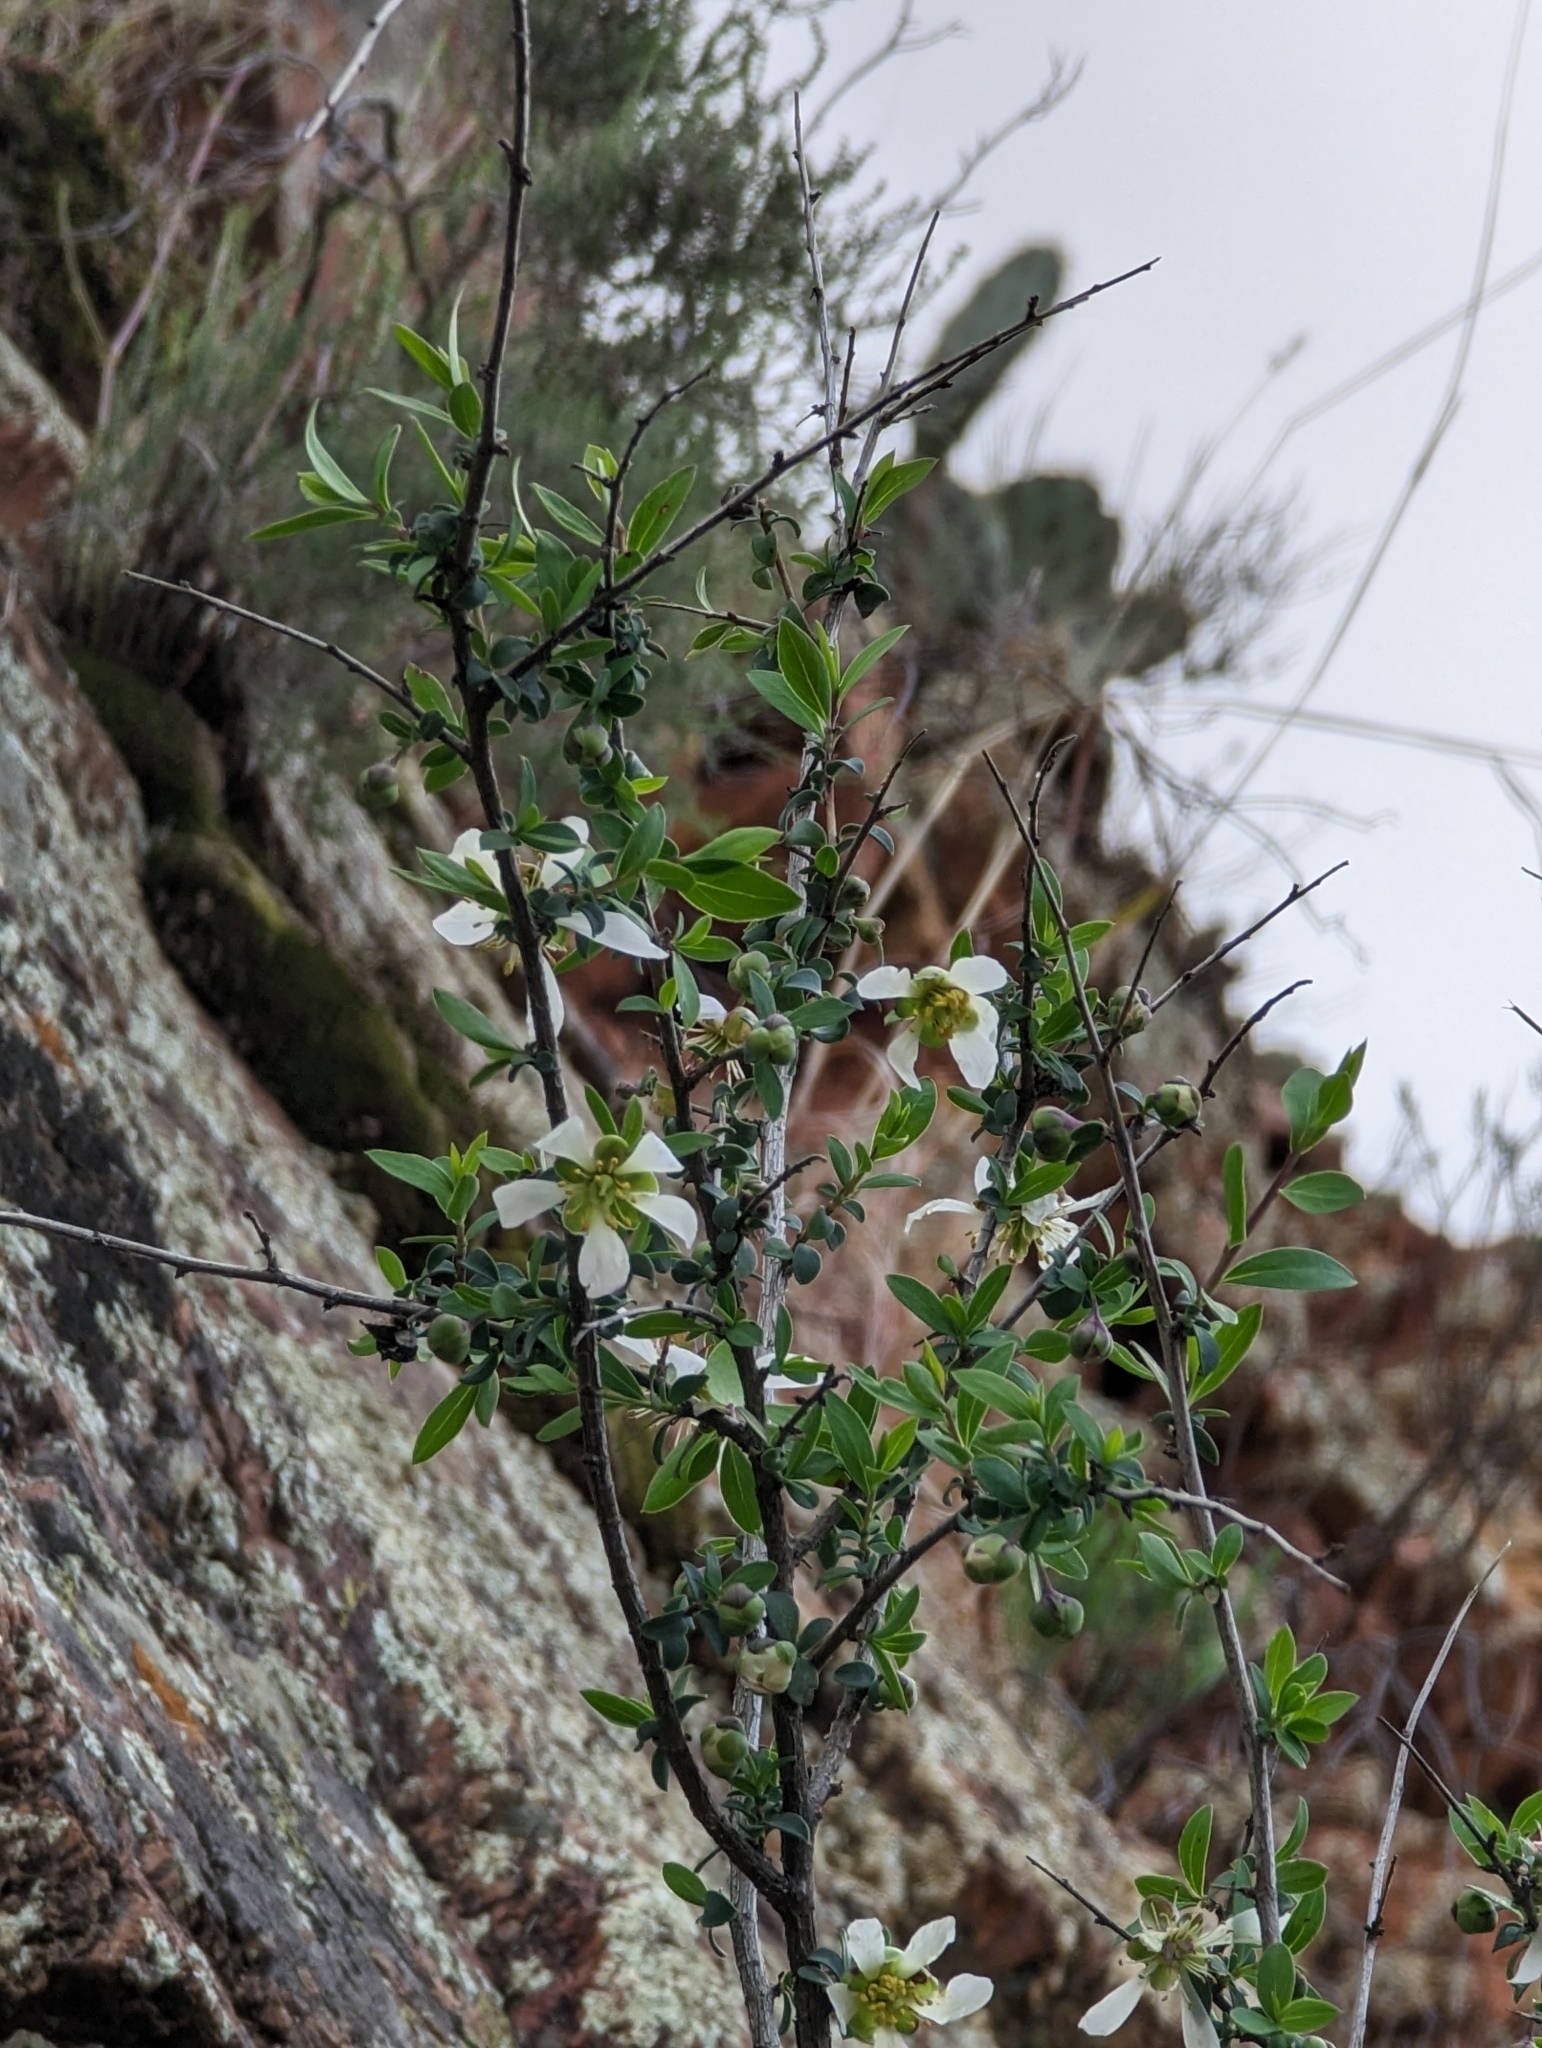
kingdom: Plantae
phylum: Tracheophyta
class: Magnoliopsida
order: Crossosomatales
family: Crossosomataceae
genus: Crossosoma
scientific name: Crossosoma bigelovii
